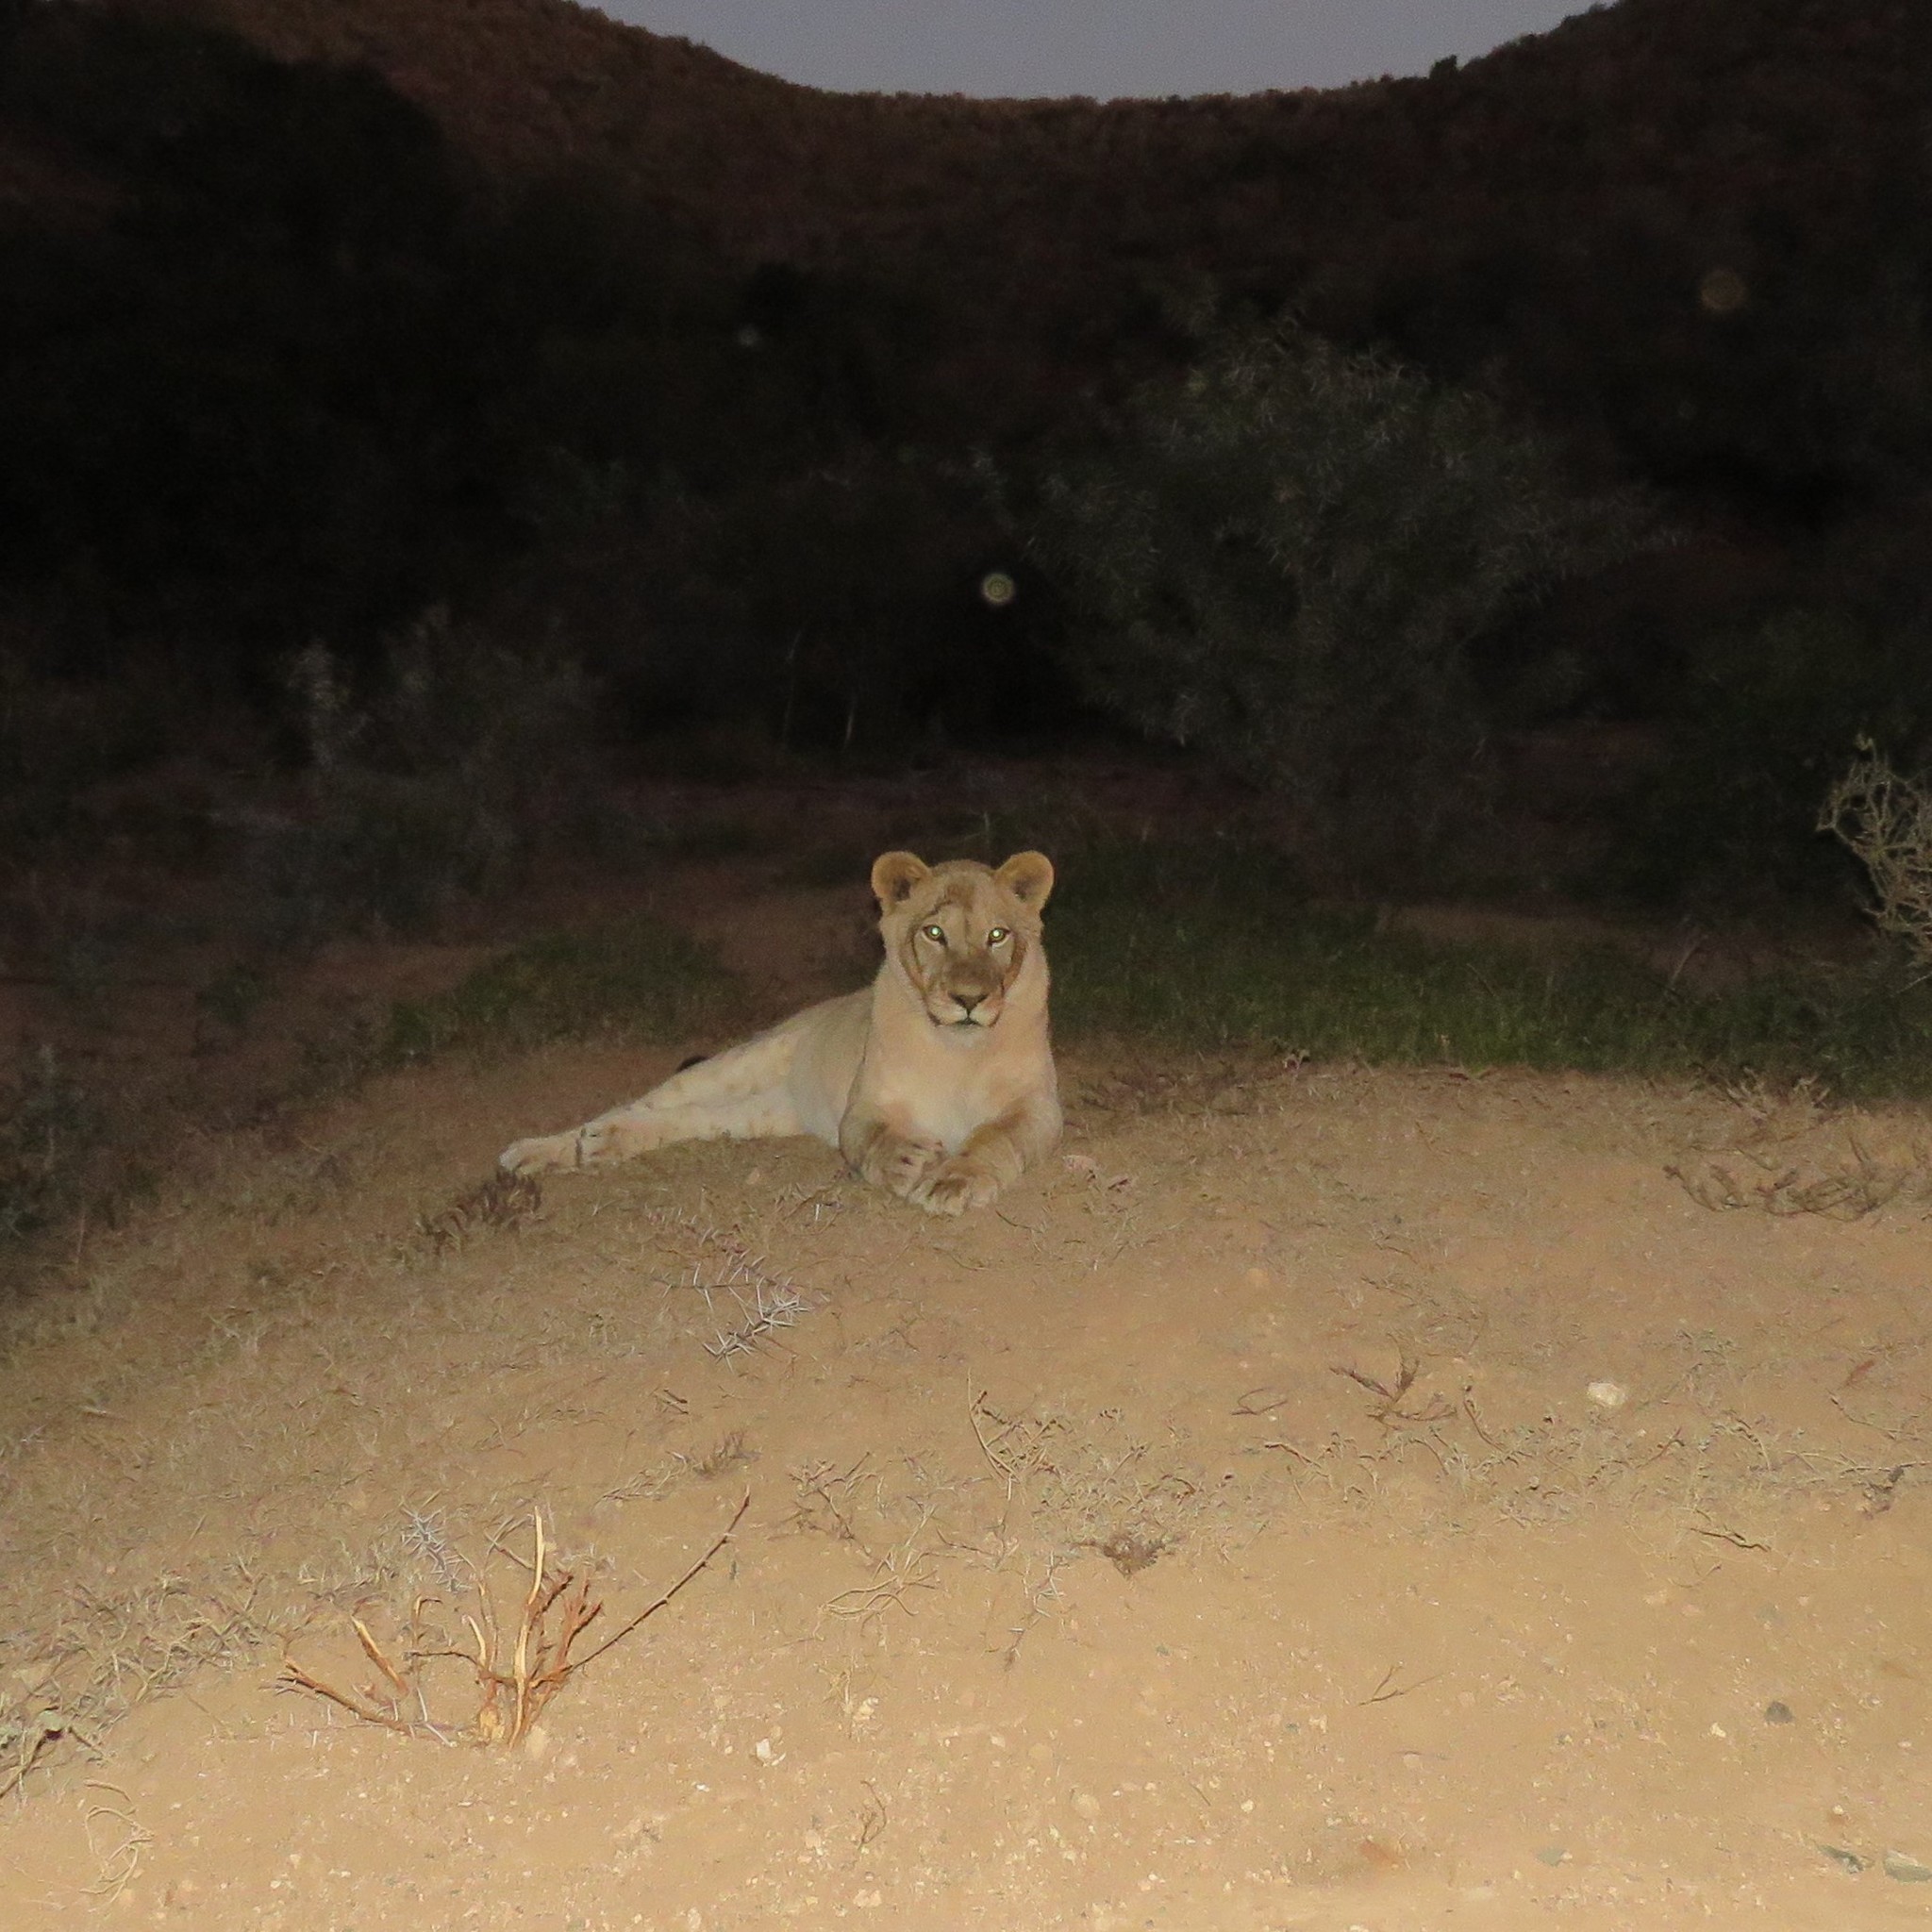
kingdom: Animalia
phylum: Chordata
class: Mammalia
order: Carnivora
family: Felidae
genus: Panthera
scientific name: Panthera leo
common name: Lion
